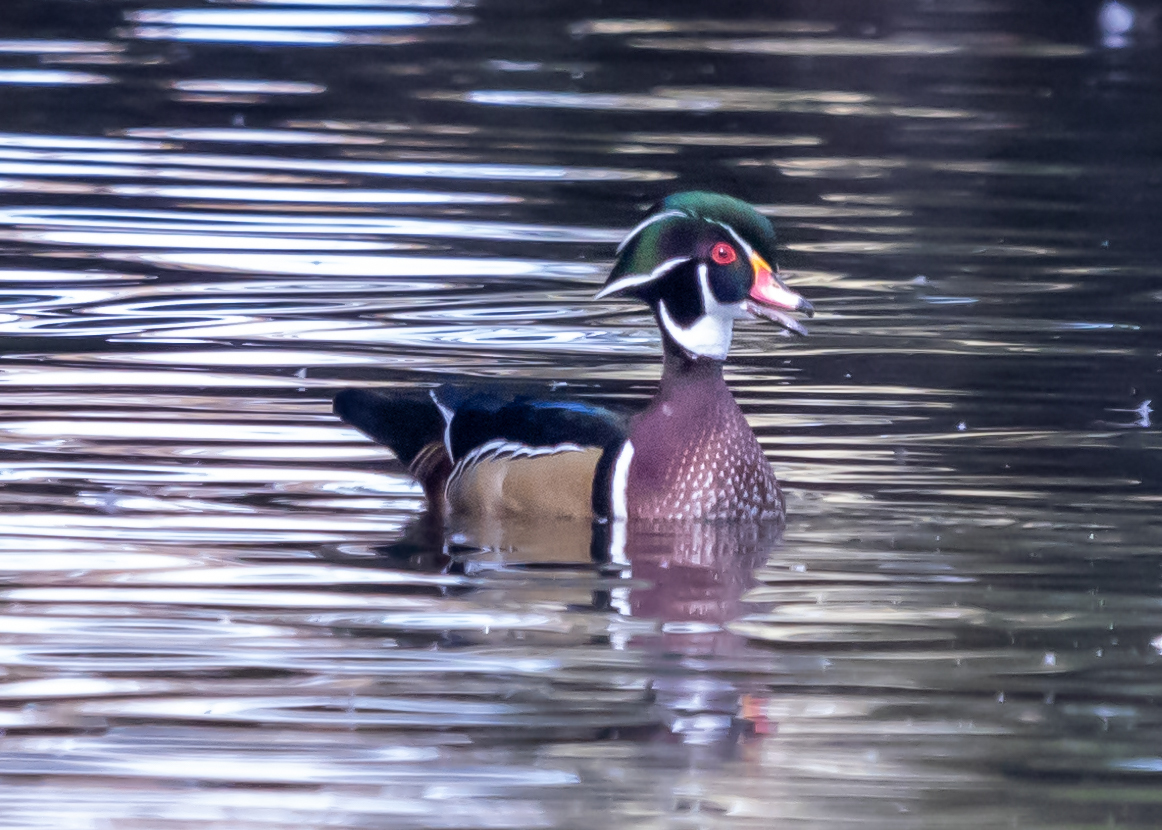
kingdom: Animalia
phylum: Chordata
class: Aves
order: Anseriformes
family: Anatidae
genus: Aix
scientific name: Aix sponsa
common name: Wood duck
